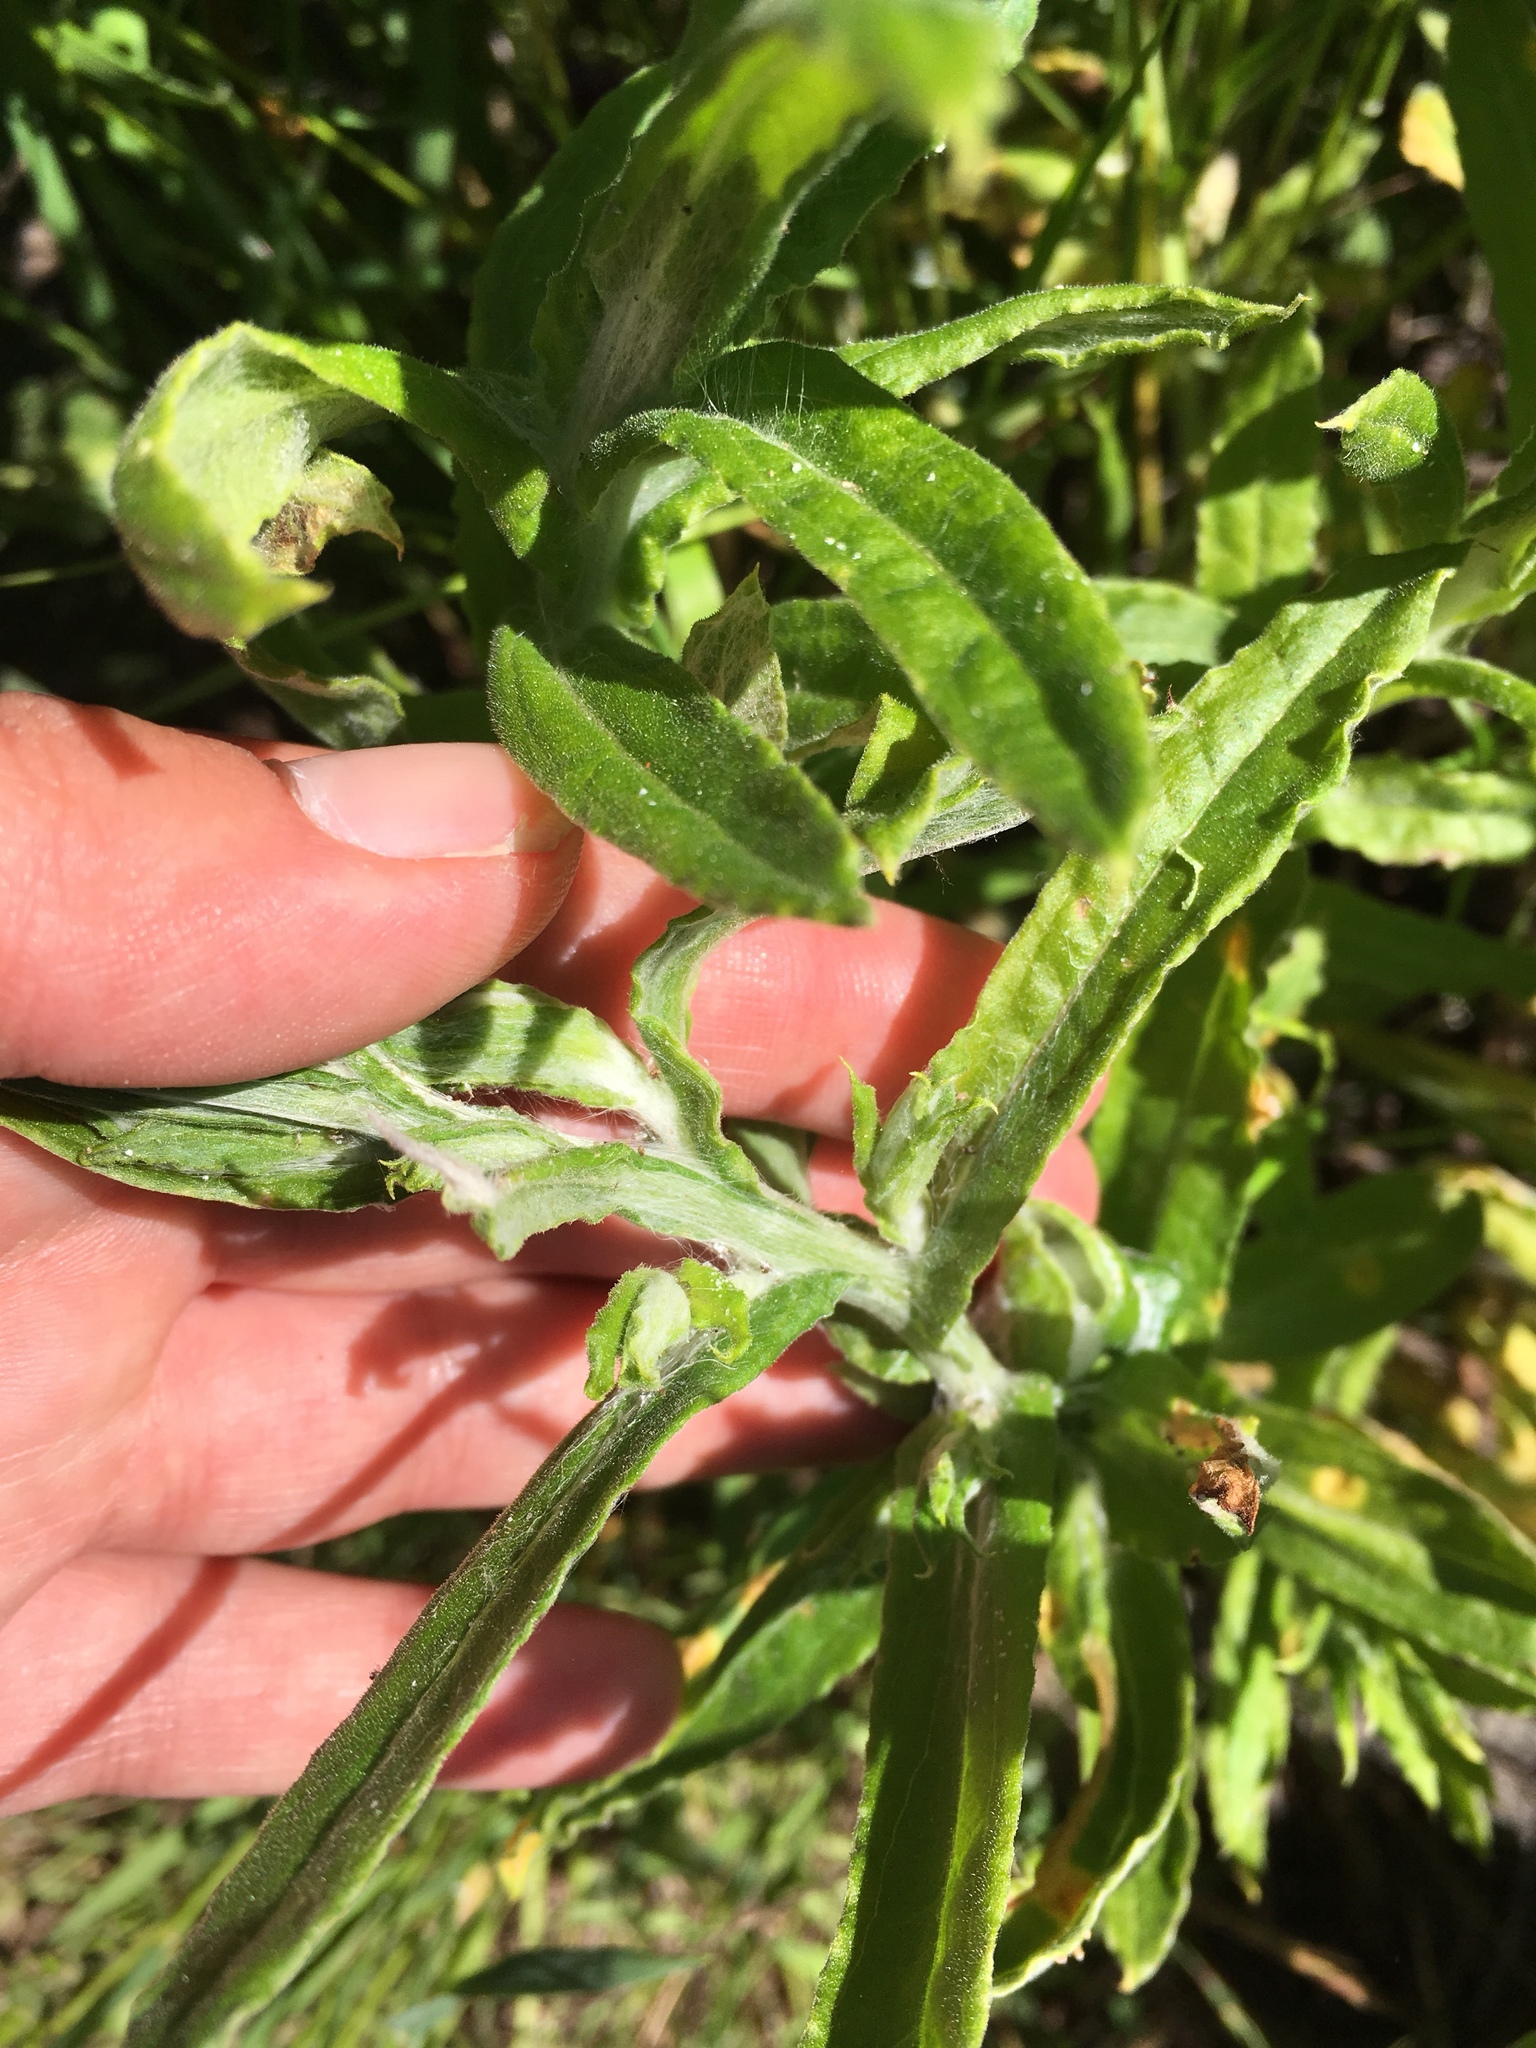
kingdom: Plantae
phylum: Tracheophyta
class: Magnoliopsida
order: Asterales
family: Asteraceae
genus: Pseudognaphalium
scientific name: Pseudognaphalium californicum
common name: California rabbit-tobacco
